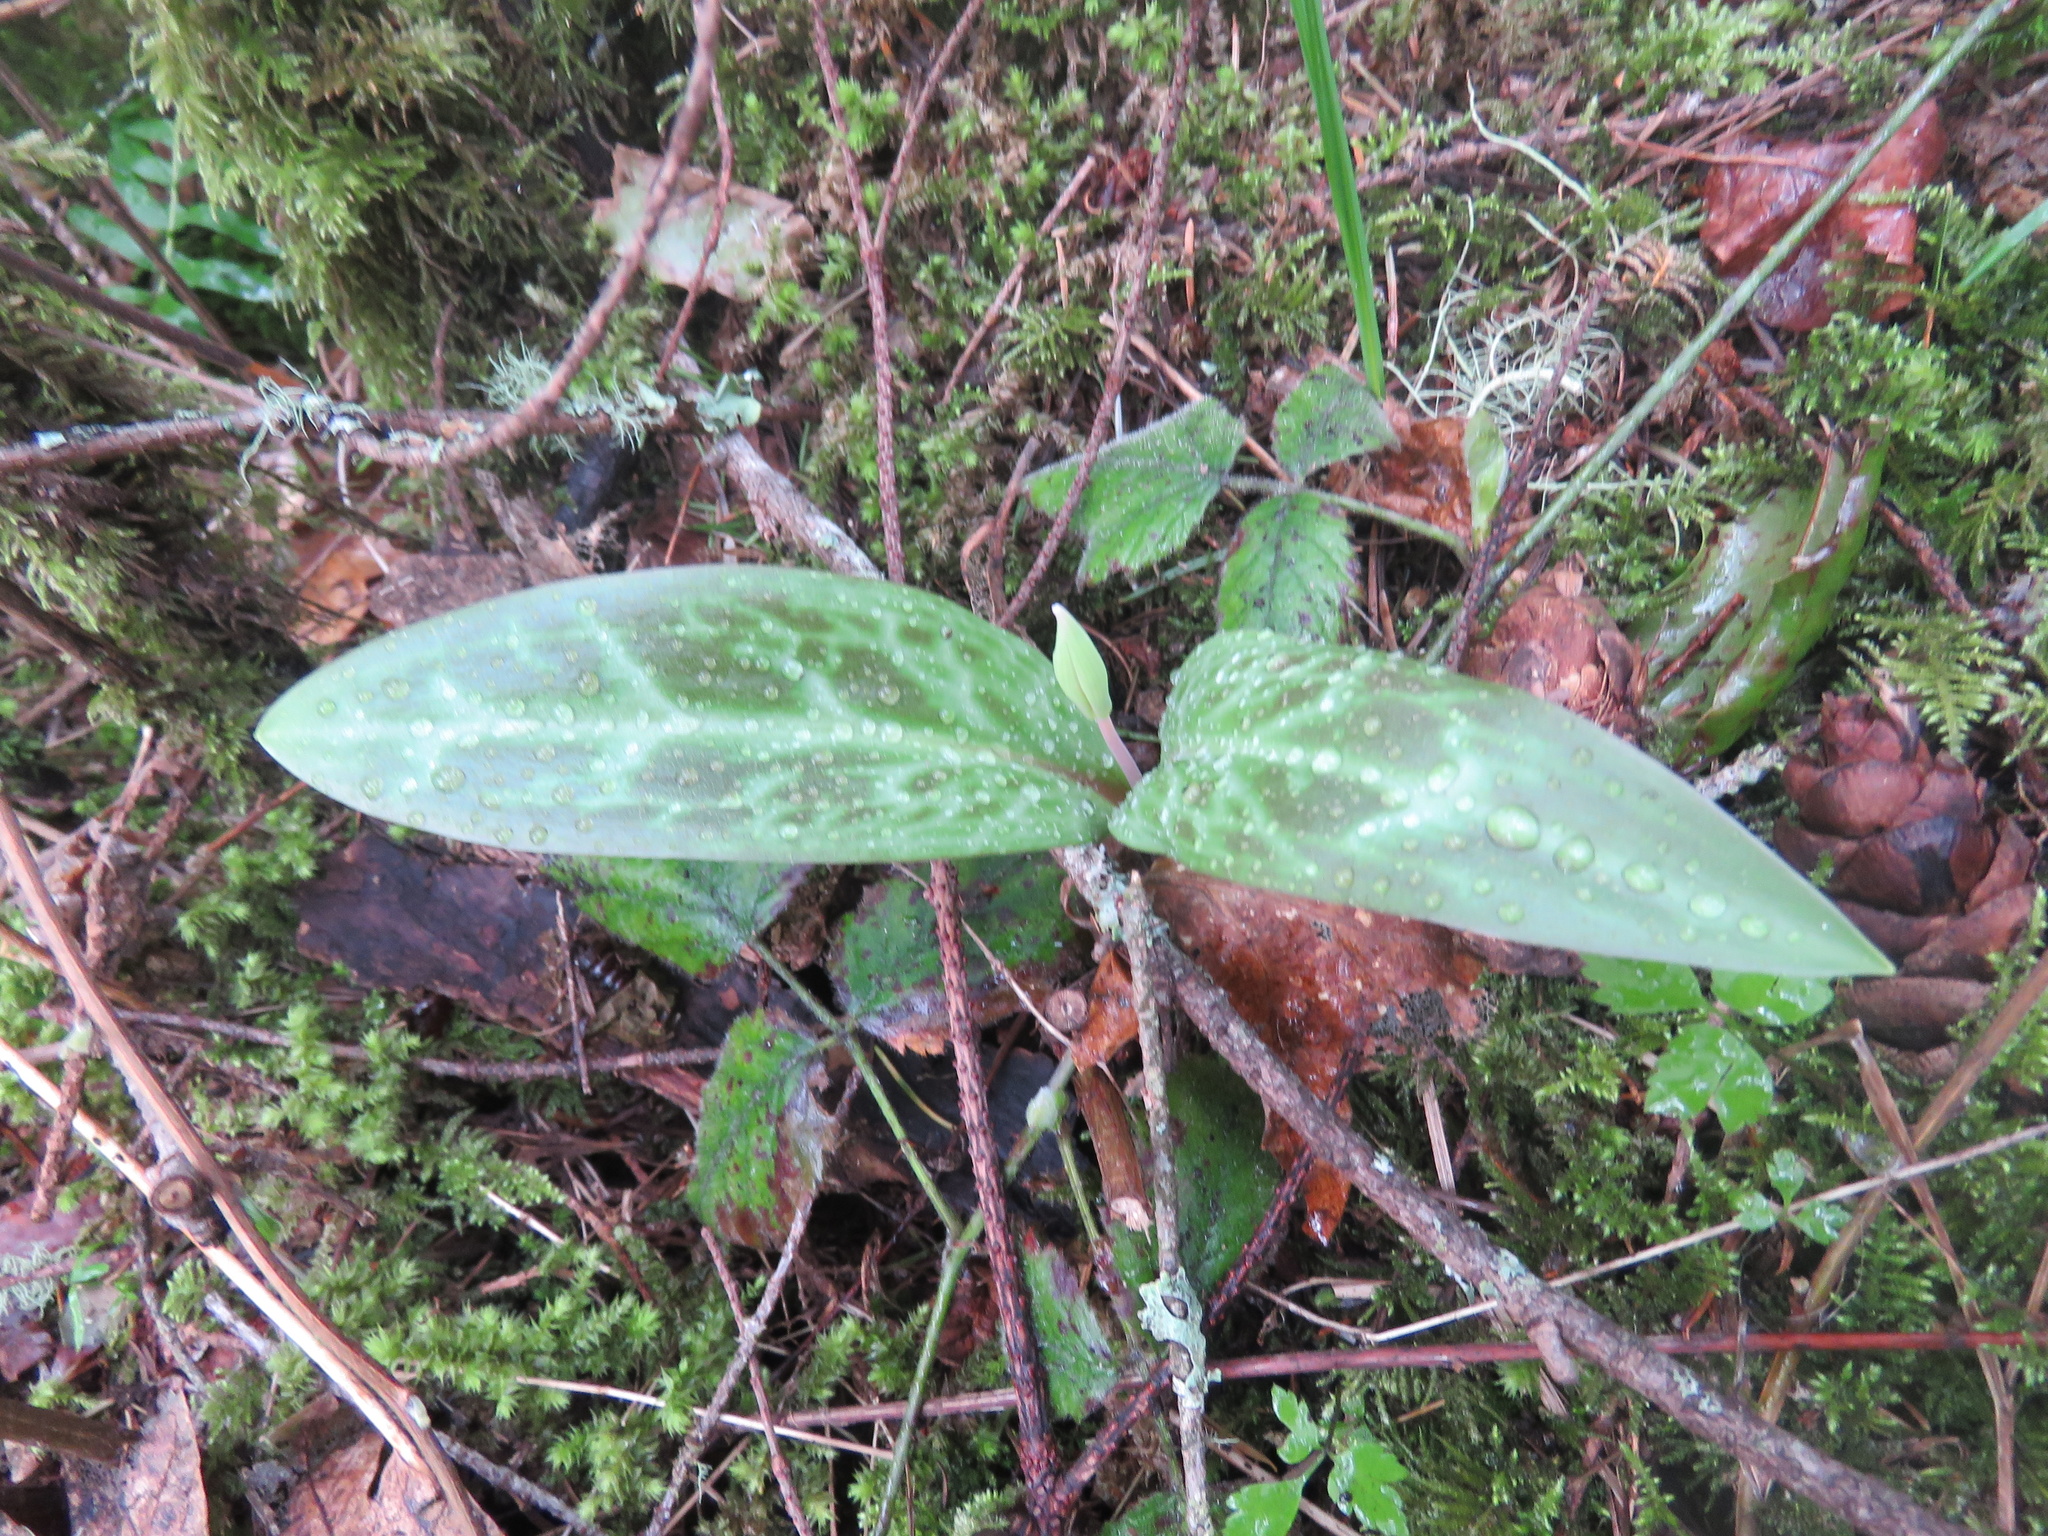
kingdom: Plantae
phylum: Tracheophyta
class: Liliopsida
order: Liliales
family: Liliaceae
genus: Erythronium
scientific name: Erythronium oregonum
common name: Giant adder's-tongue
